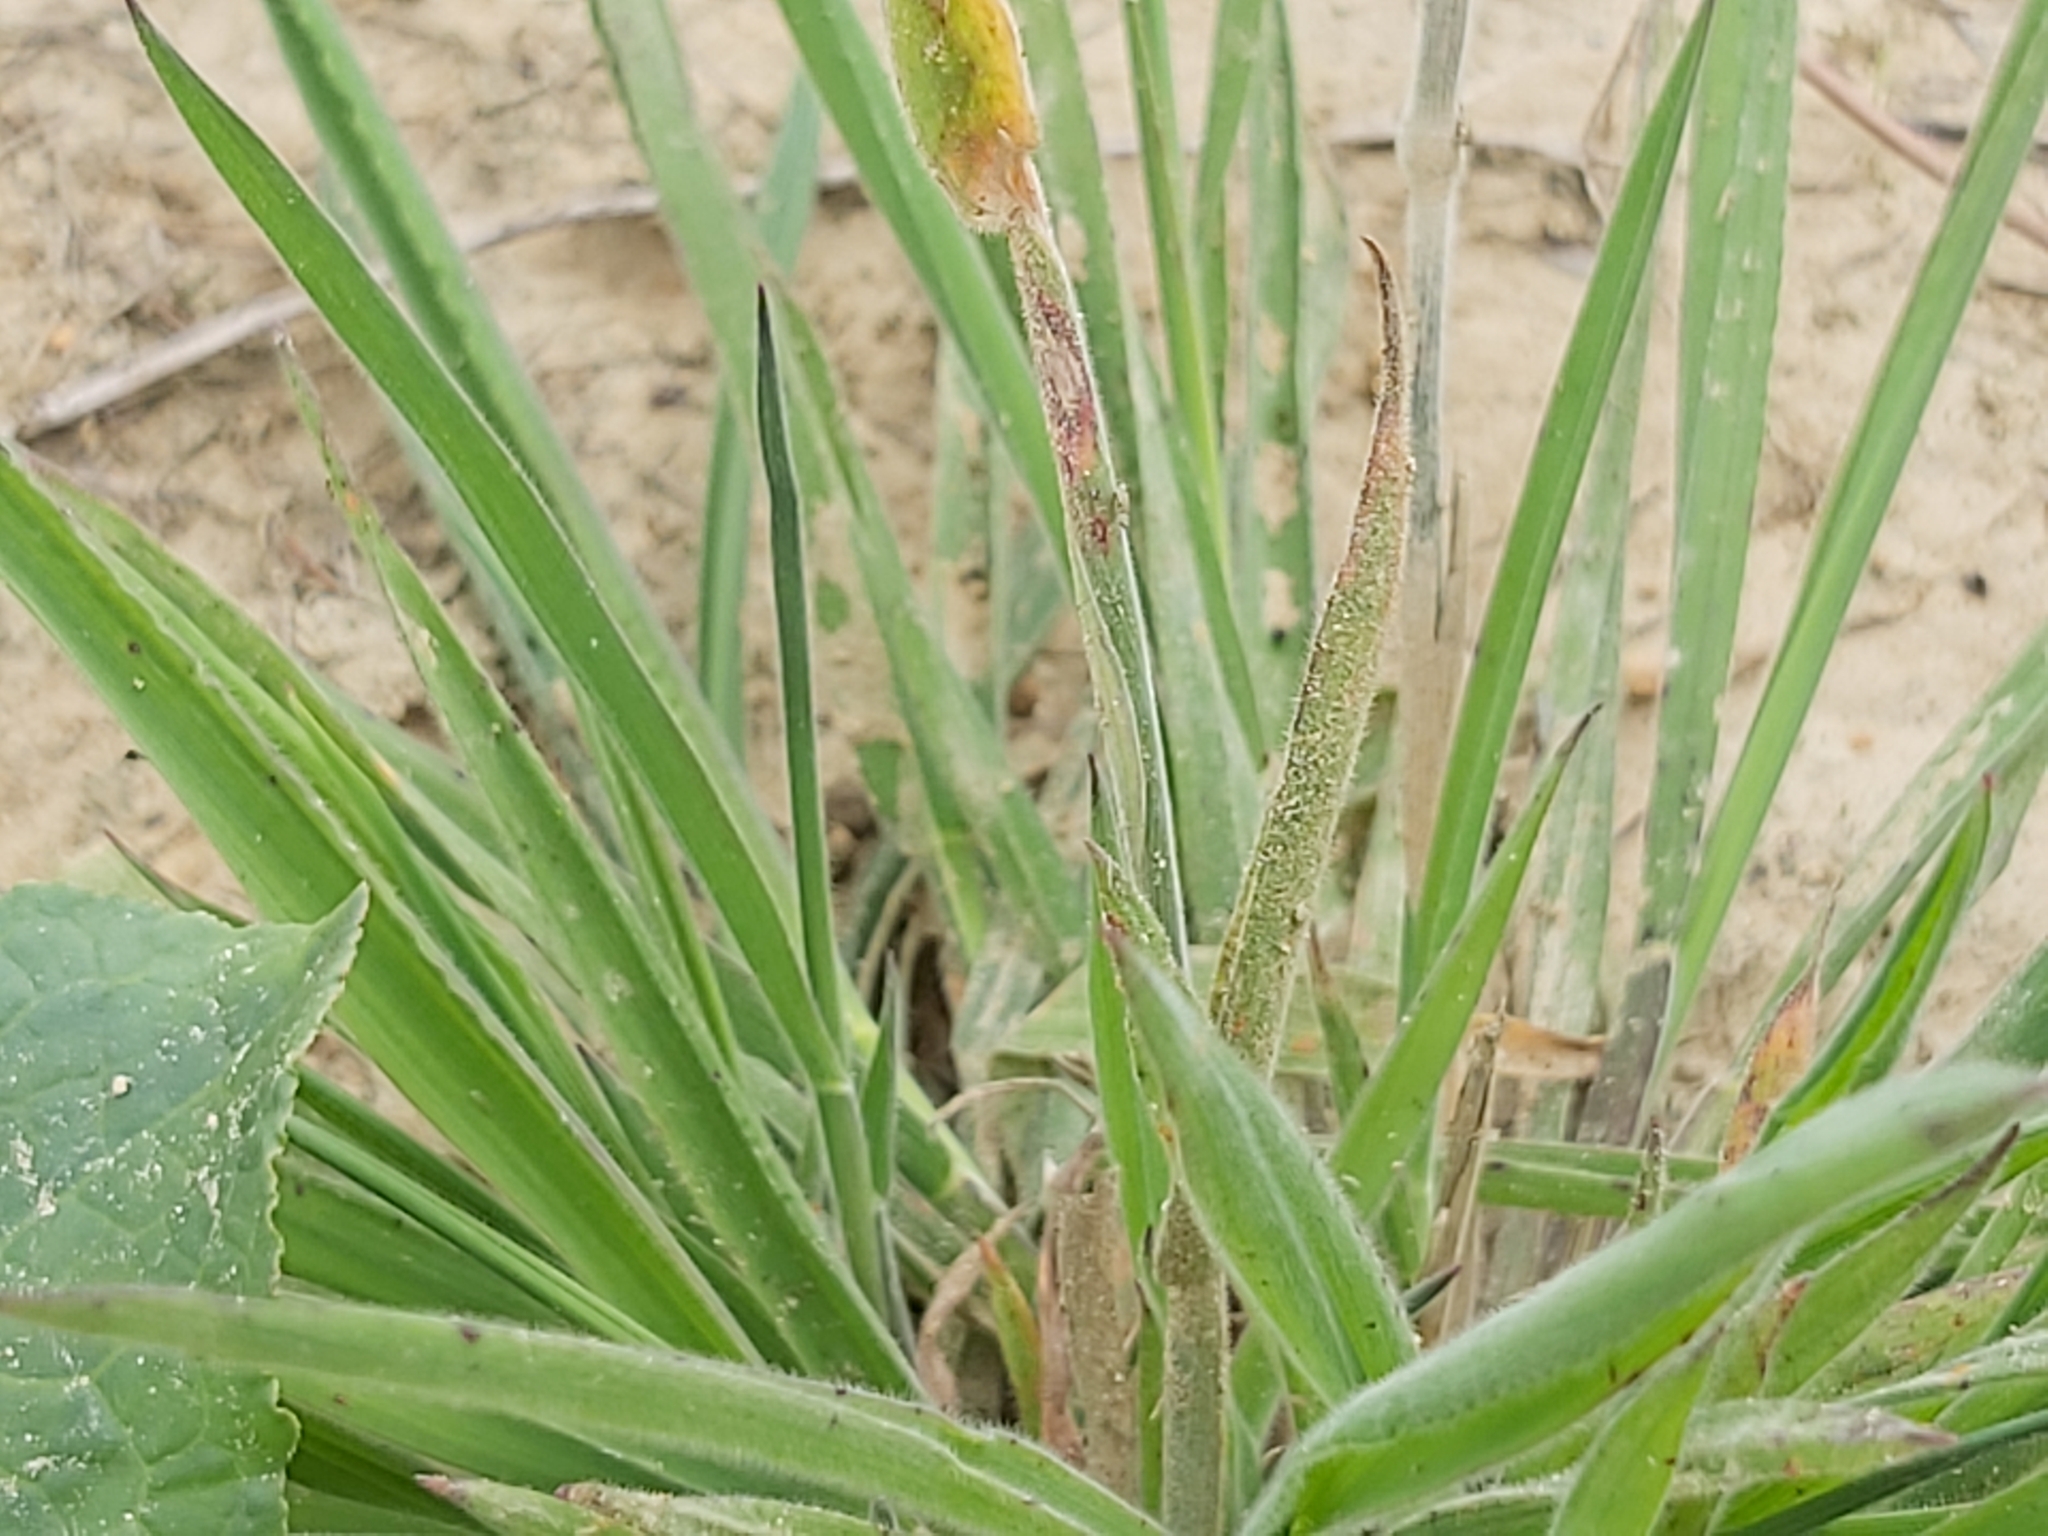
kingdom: Plantae
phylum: Tracheophyta
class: Liliopsida
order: Poales
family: Poaceae
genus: Holcus
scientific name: Holcus lanatus
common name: Yorkshire-fog
